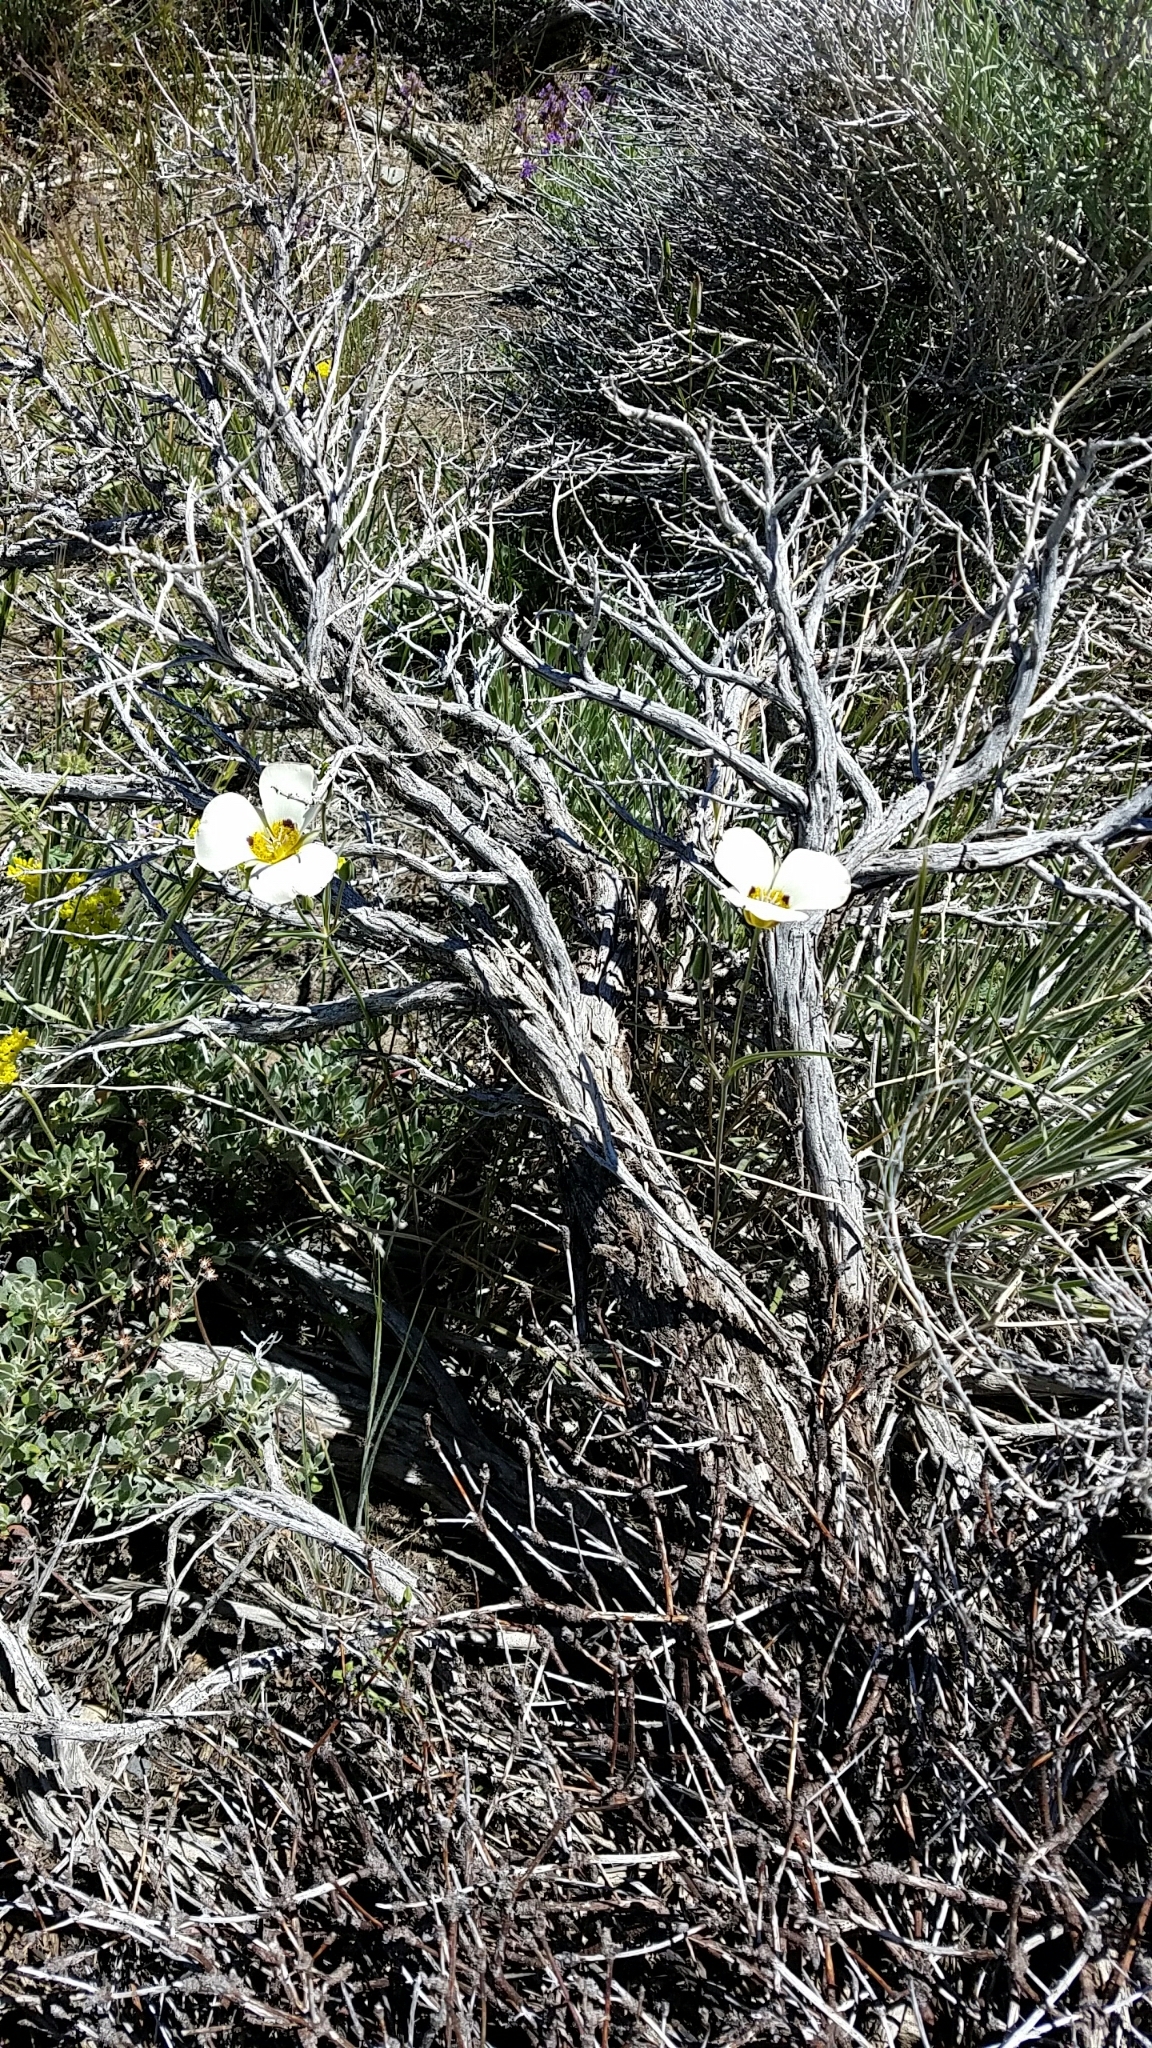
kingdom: Plantae
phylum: Tracheophyta
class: Liliopsida
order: Liliales
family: Liliaceae
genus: Calochortus
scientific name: Calochortus leichtlinii
